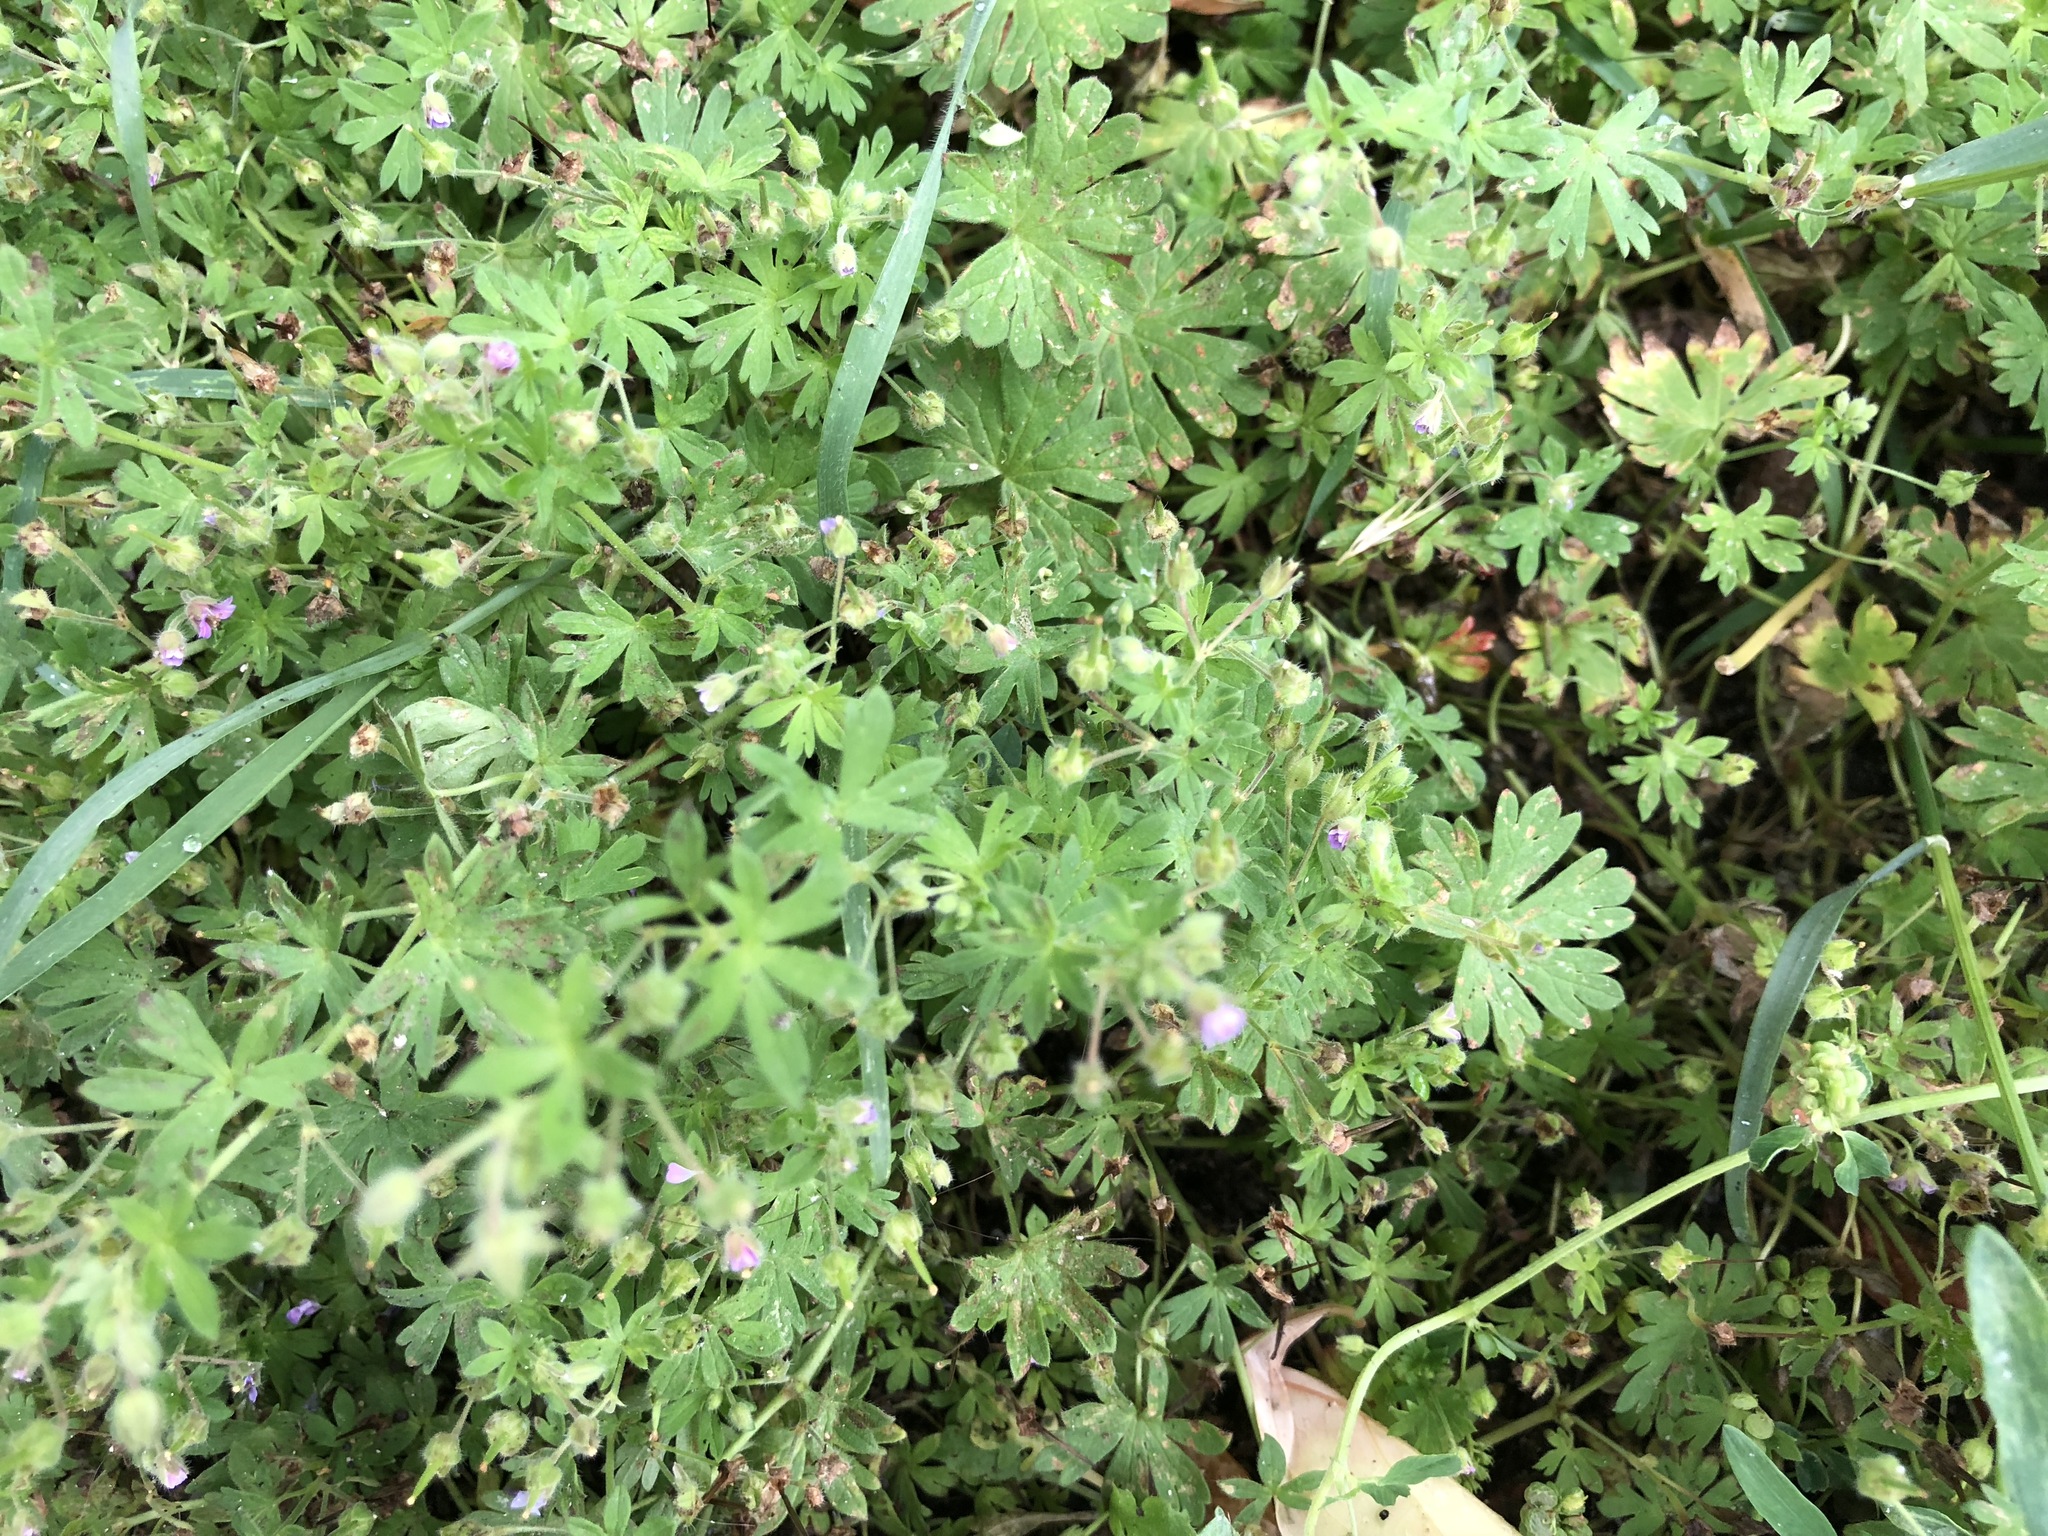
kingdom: Plantae
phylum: Tracheophyta
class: Magnoliopsida
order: Geraniales
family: Geraniaceae
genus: Geranium
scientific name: Geranium pusillum
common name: Small geranium
